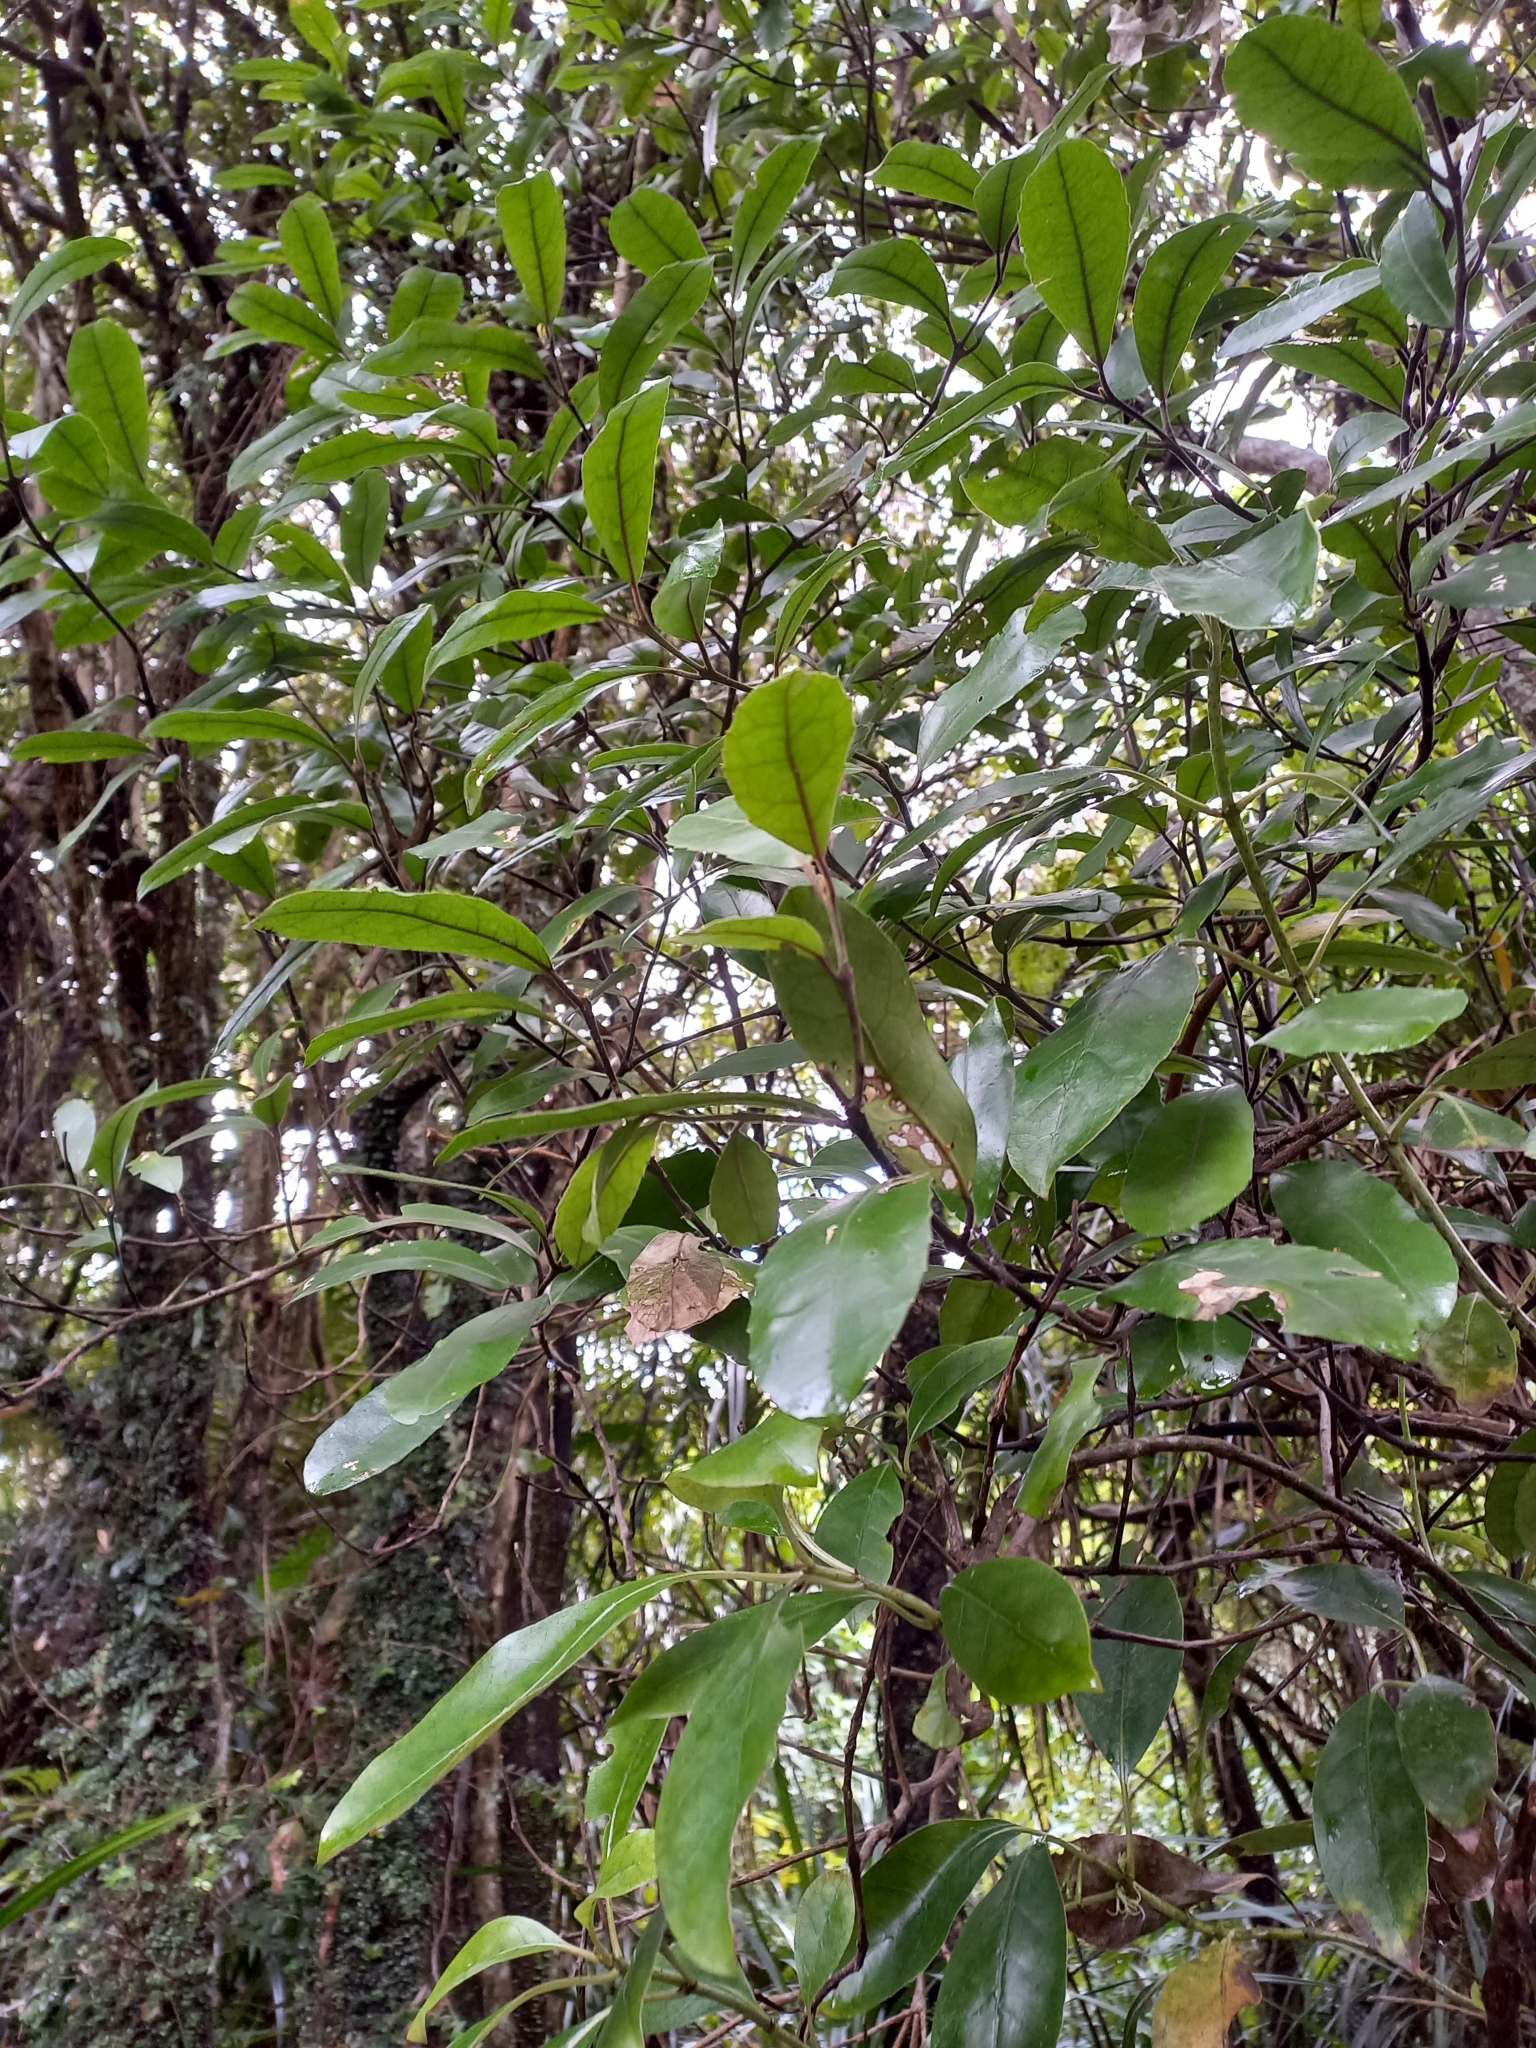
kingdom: Plantae
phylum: Tracheophyta
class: Magnoliopsida
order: Laurales
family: Monimiaceae
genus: Hedycarya
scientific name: Hedycarya arborea
